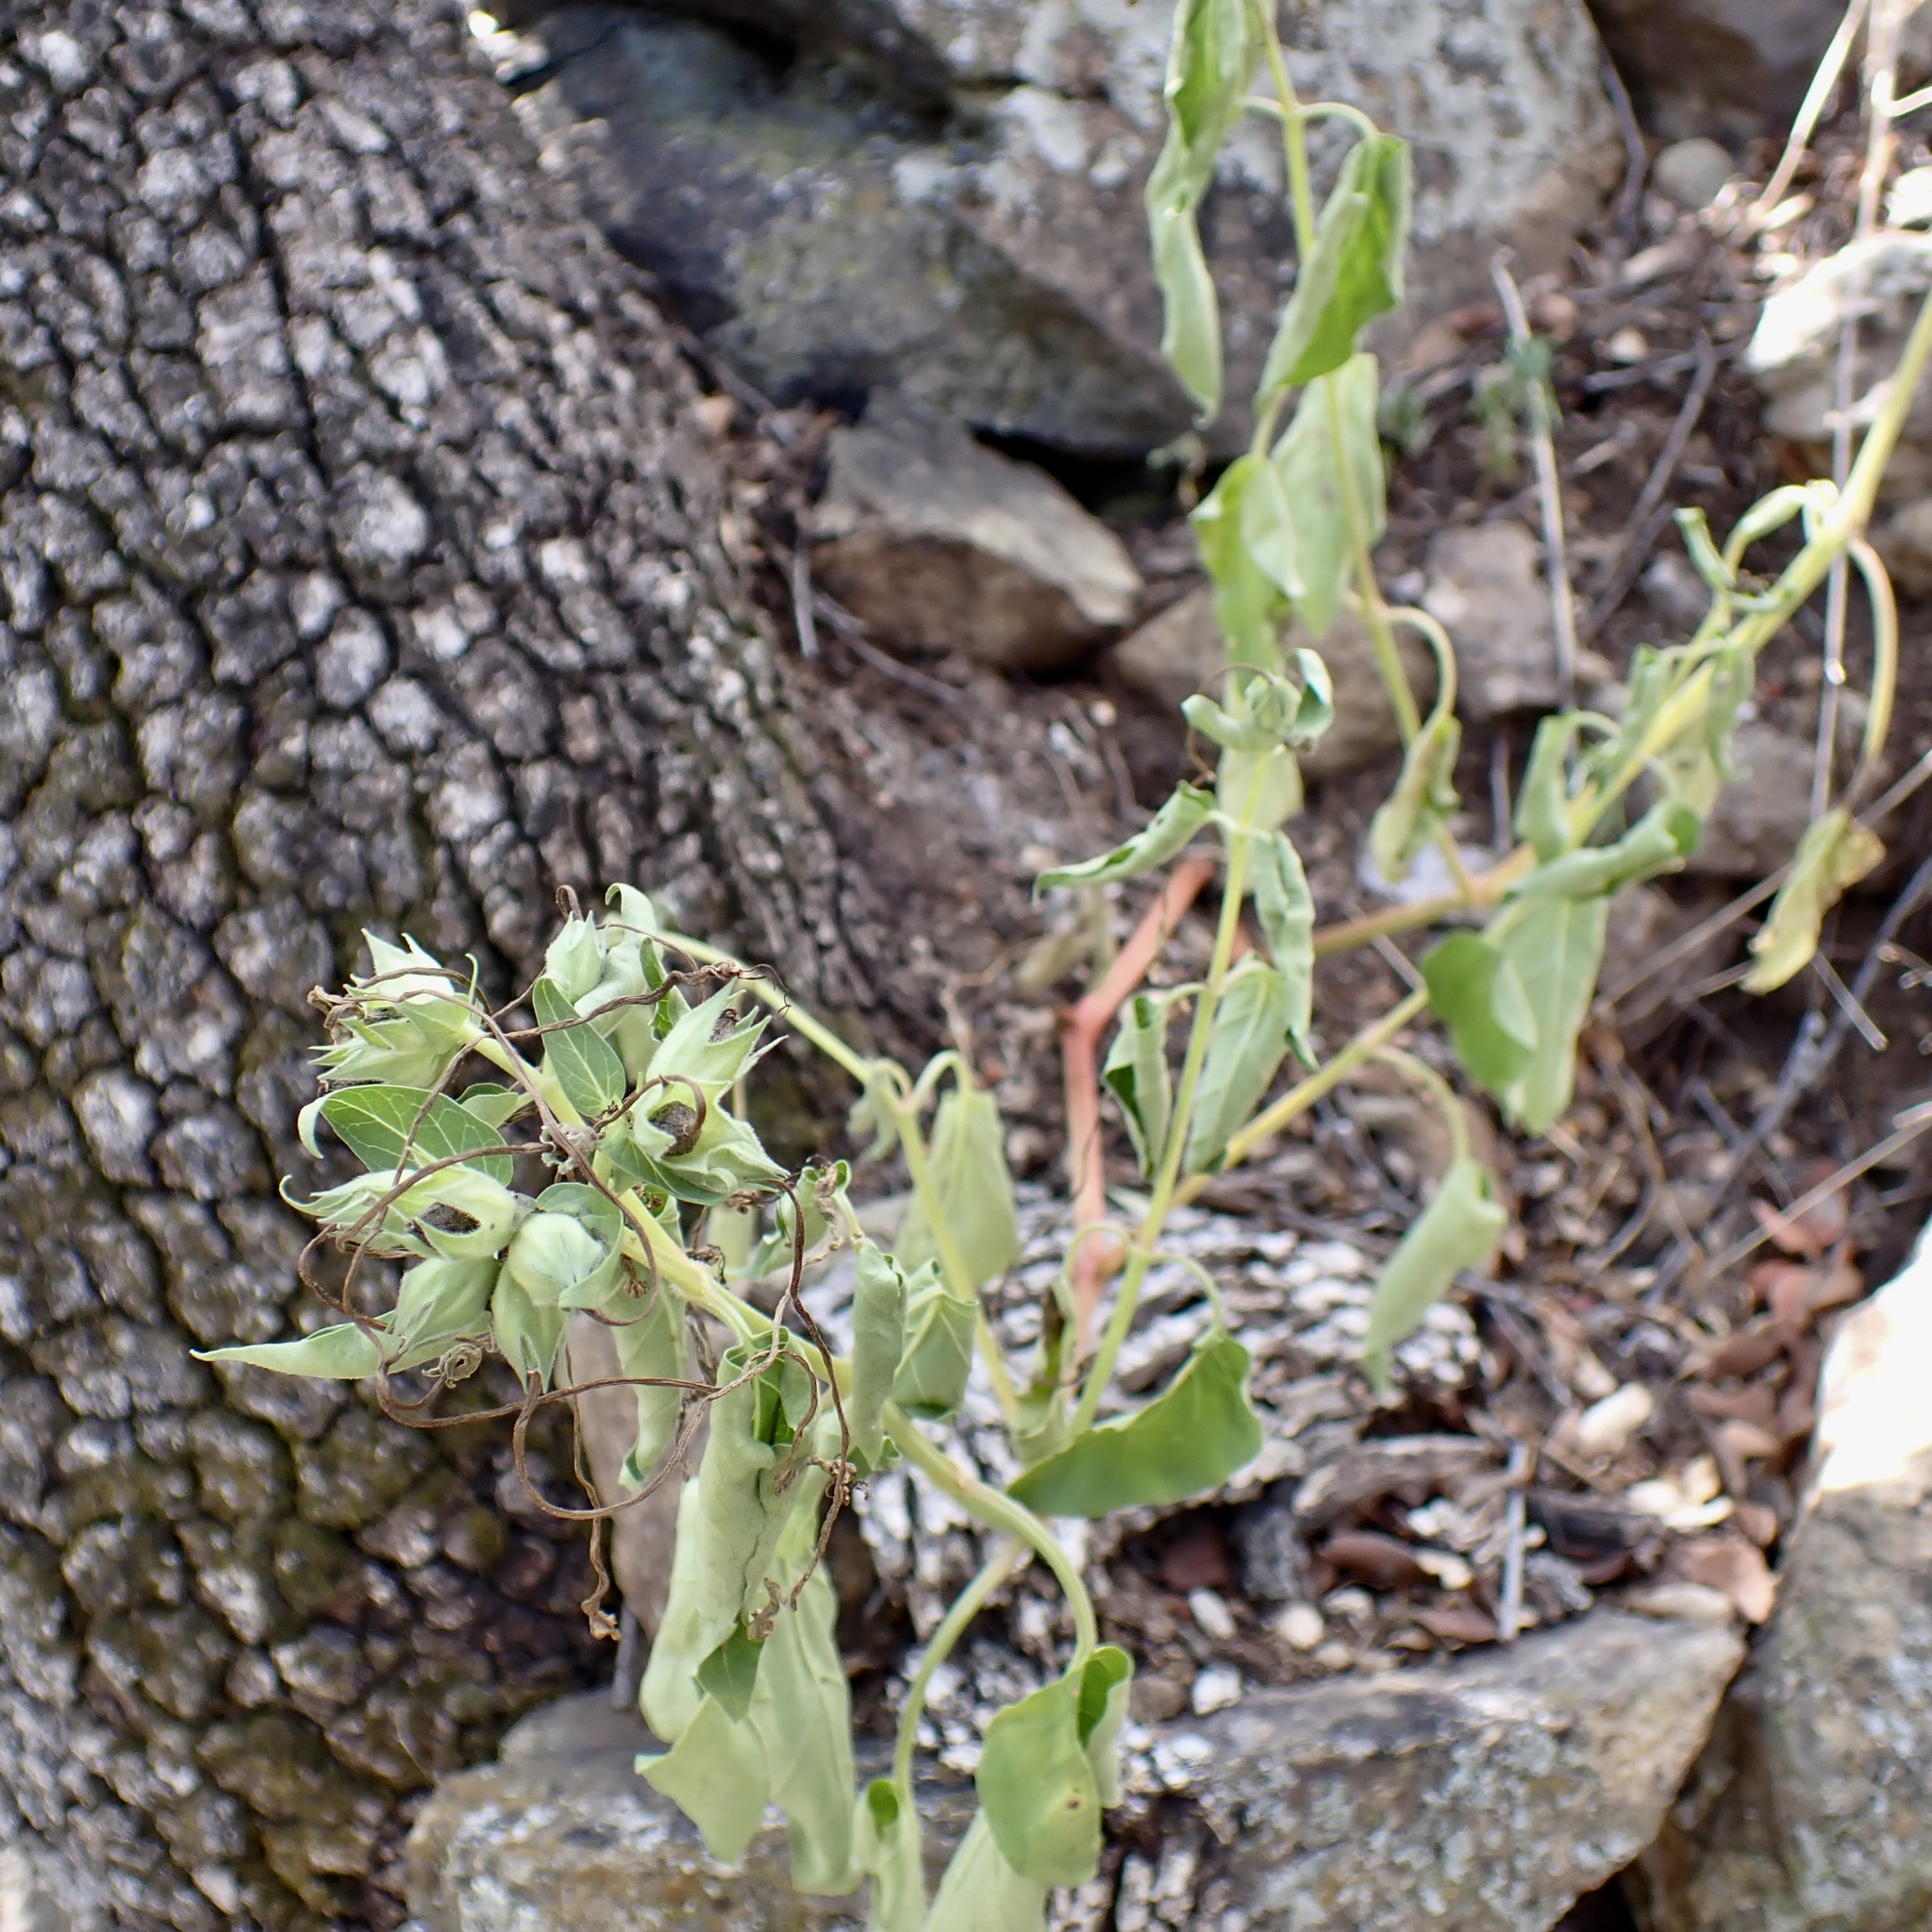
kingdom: Plantae
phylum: Tracheophyta
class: Magnoliopsida
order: Caryophyllales
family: Nyctaginaceae
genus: Mirabilis
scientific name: Mirabilis longiflora
